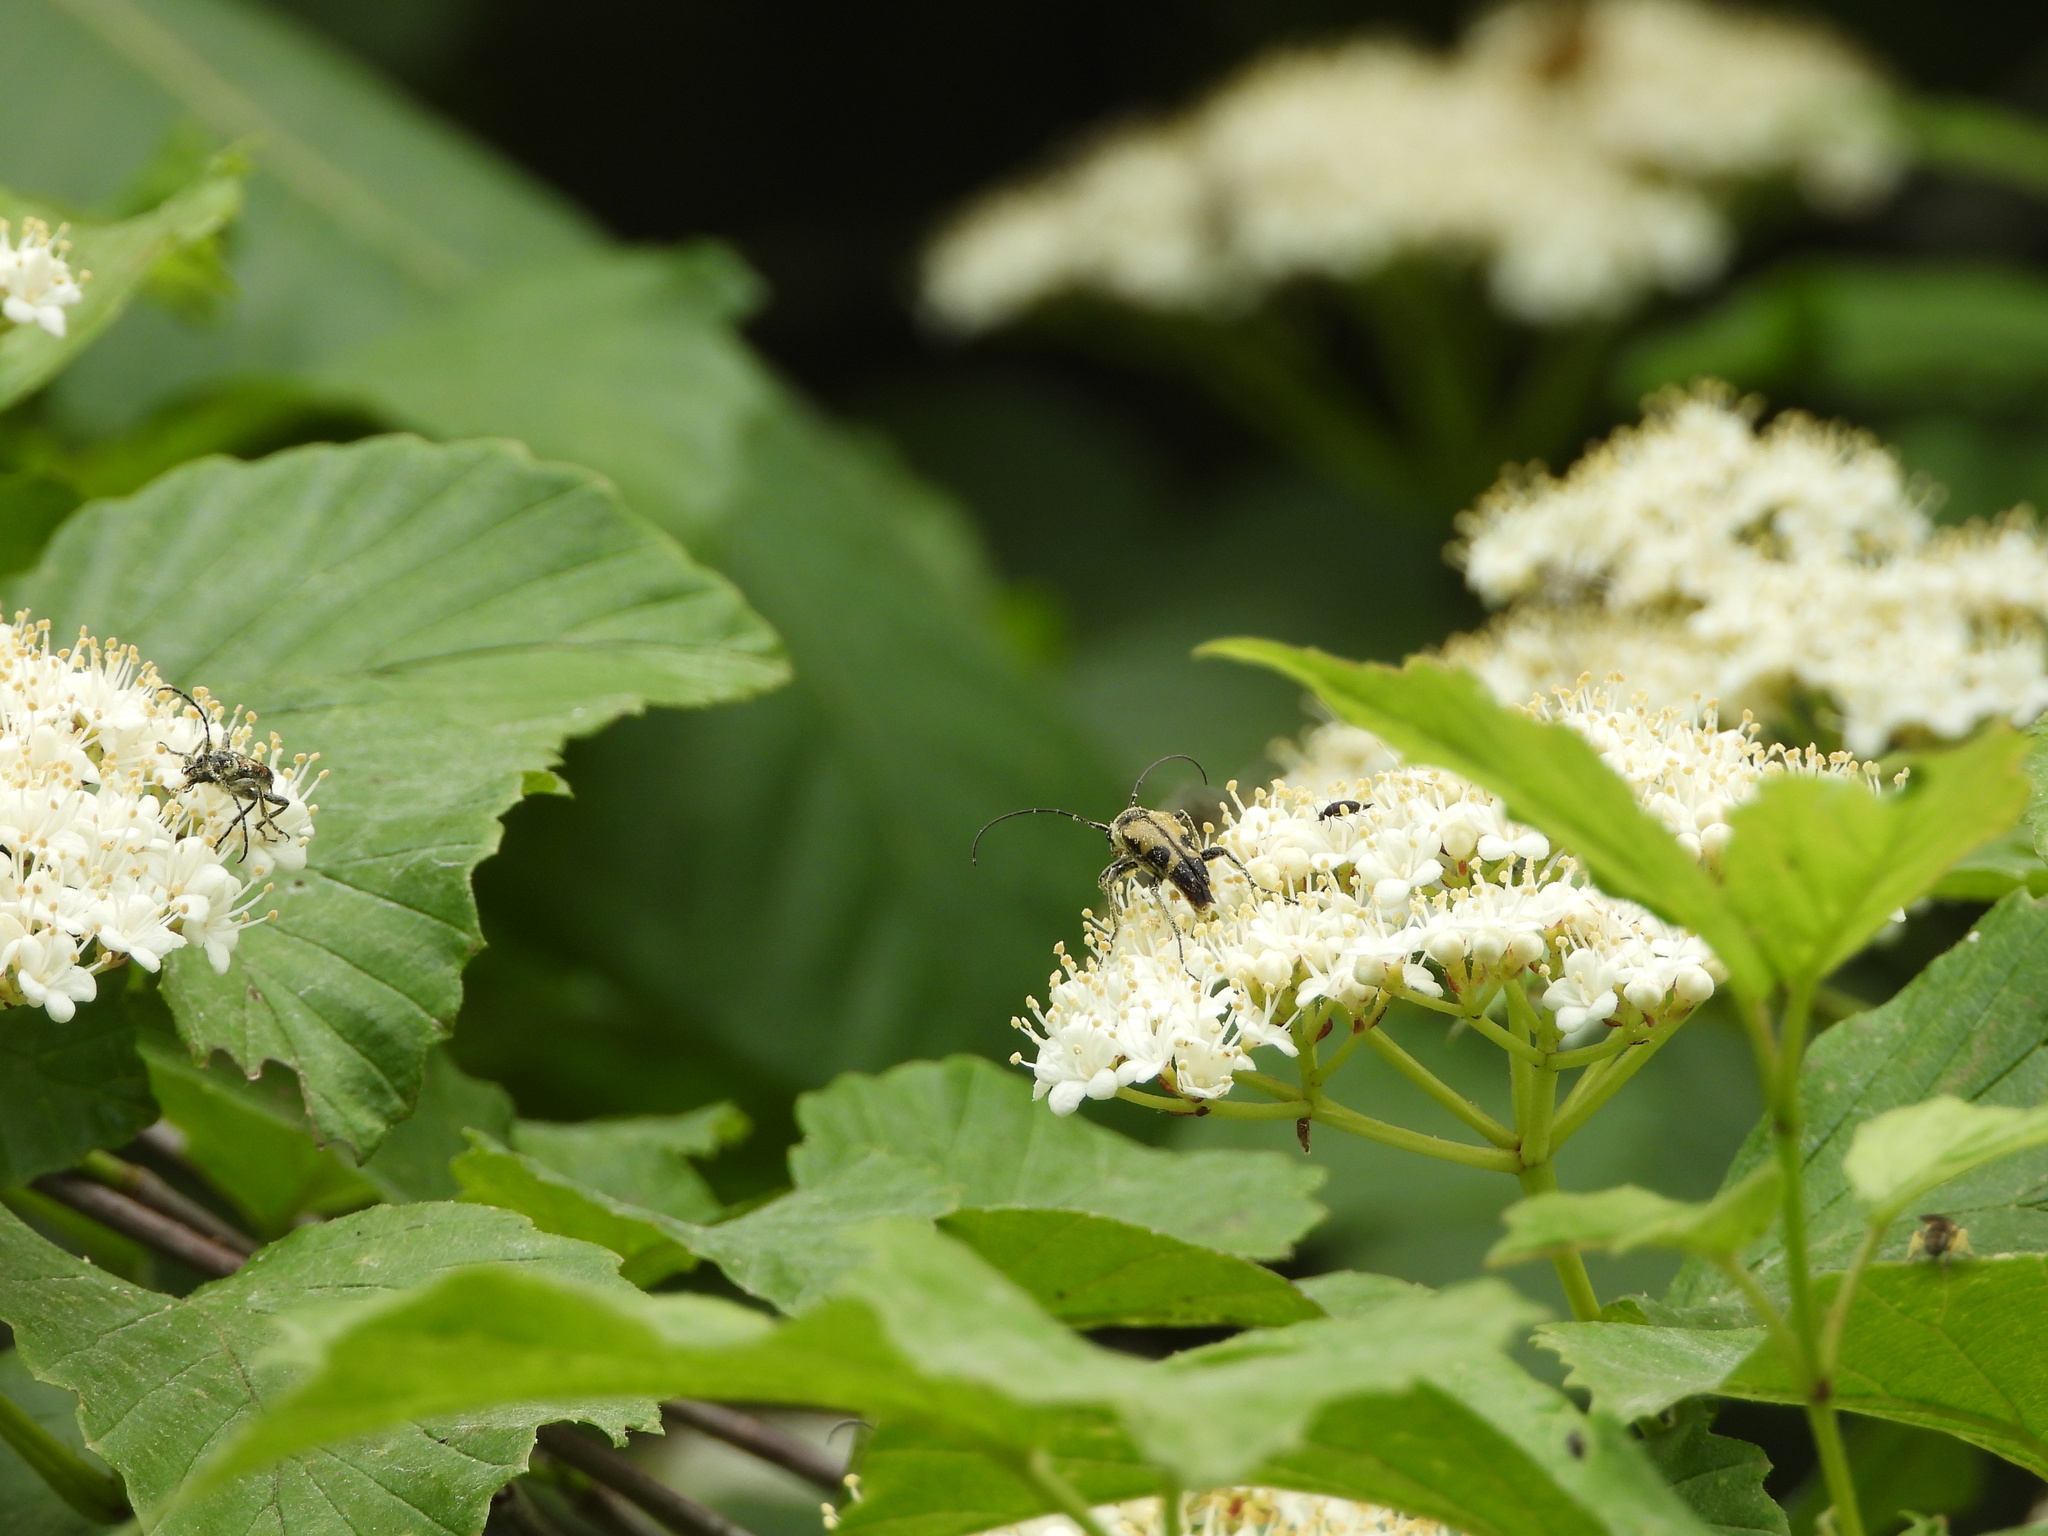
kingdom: Animalia
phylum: Arthropoda
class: Insecta
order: Coleoptera
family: Cerambycidae
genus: Judolia
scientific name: Judolia cordifera
